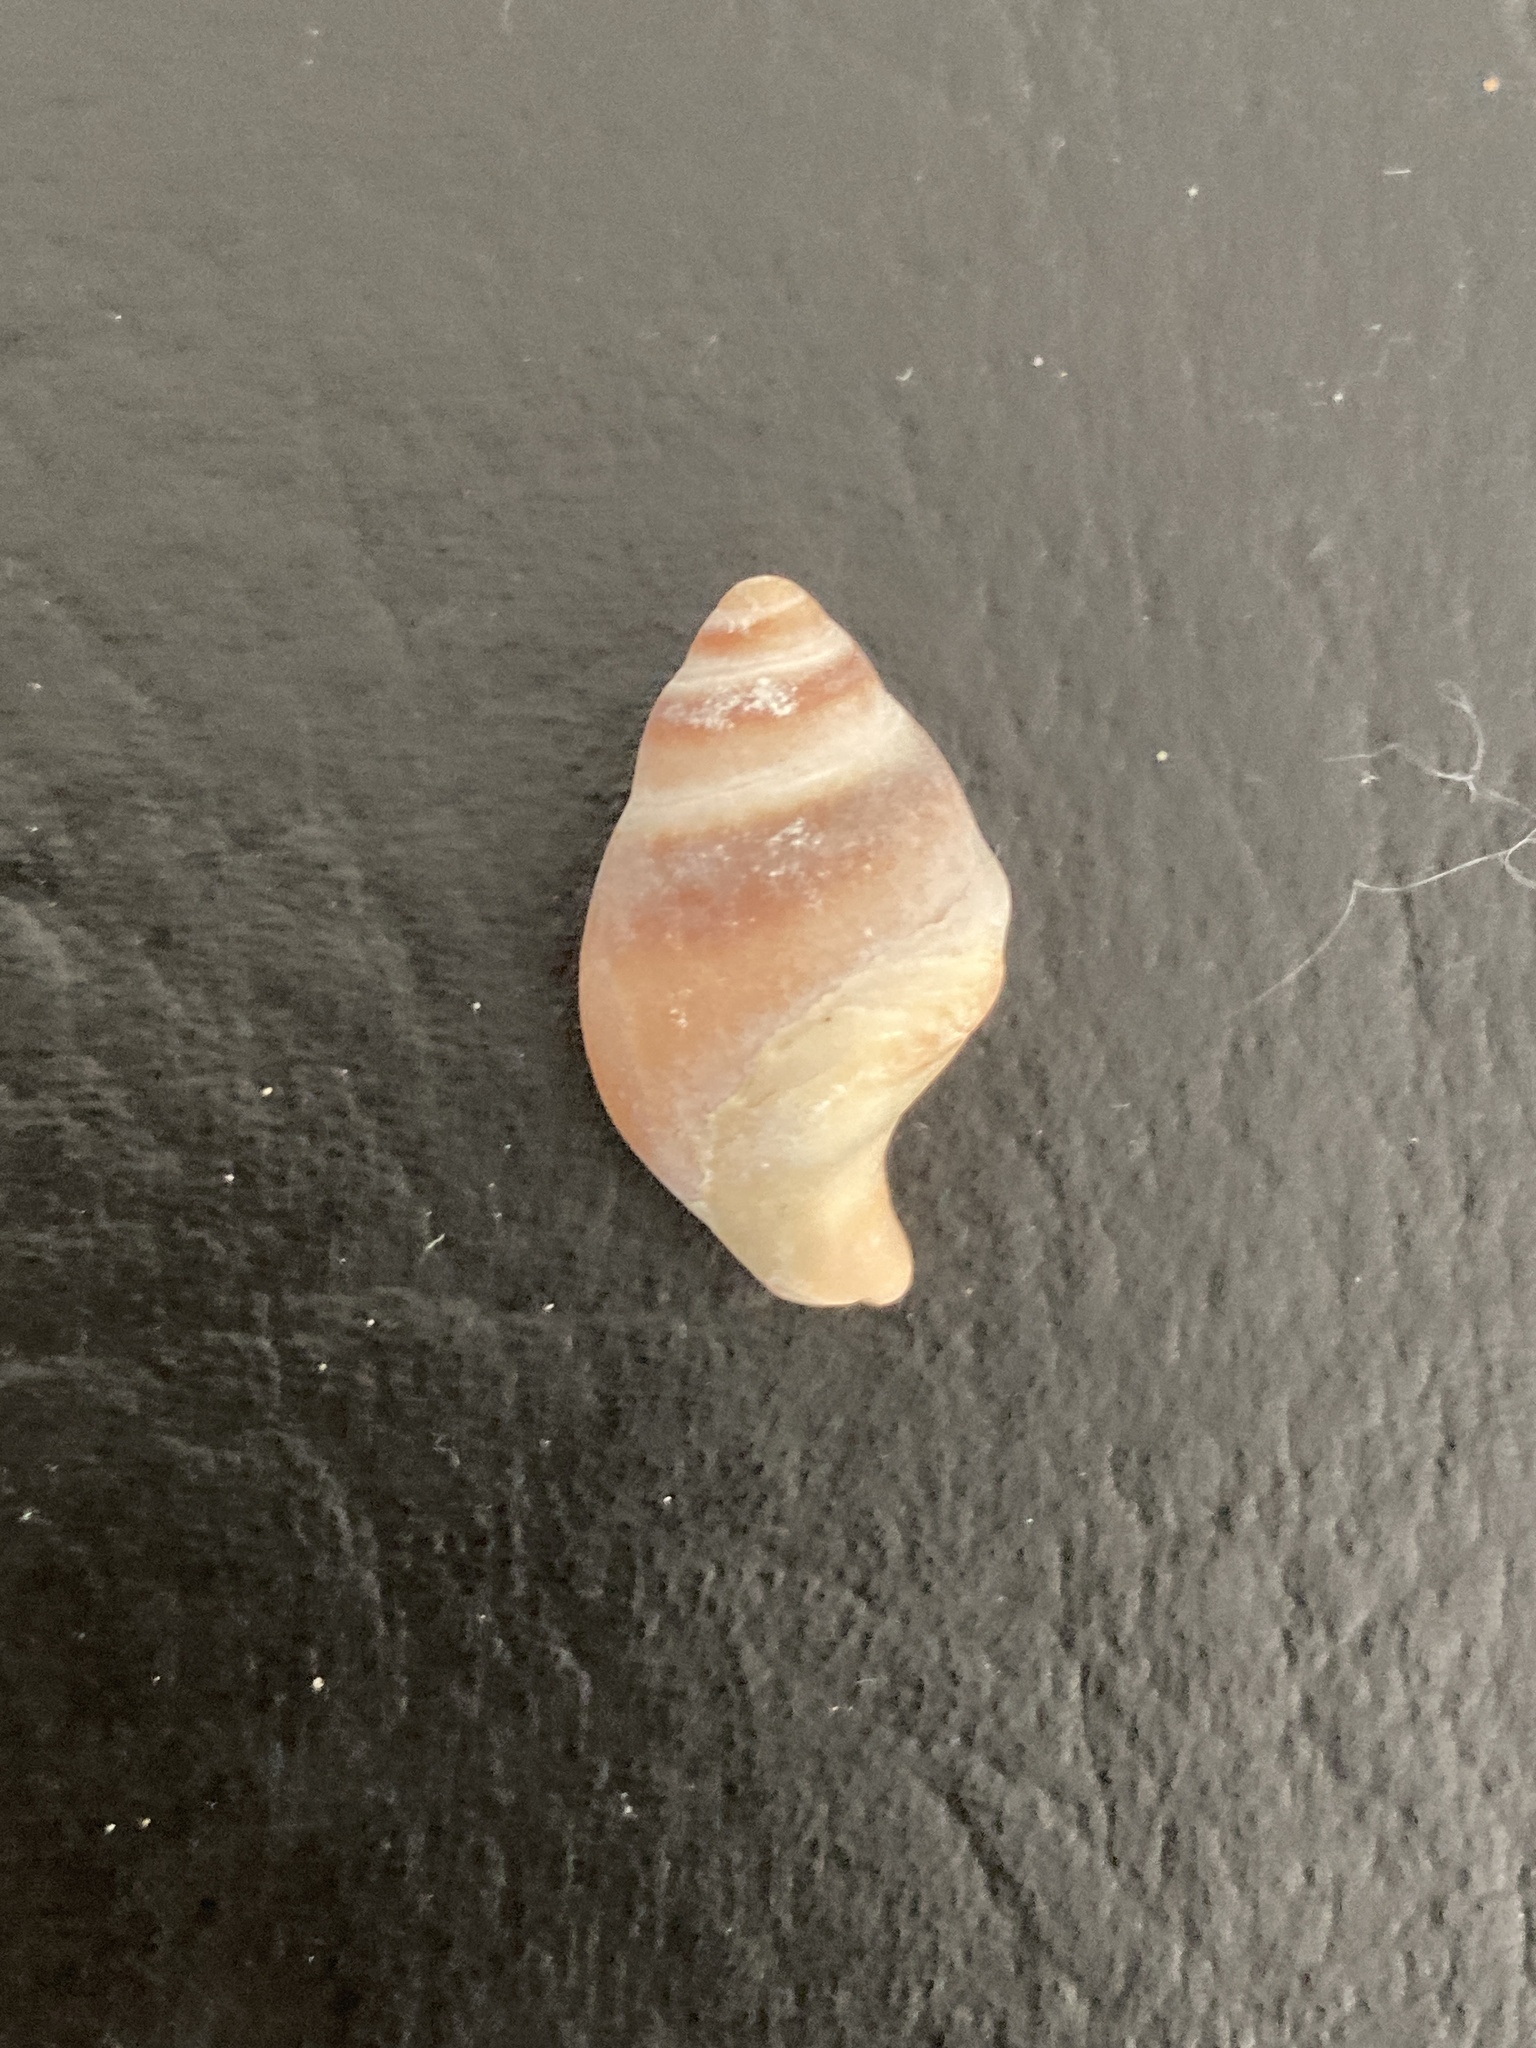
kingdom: Animalia
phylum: Mollusca
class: Gastropoda
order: Neogastropoda
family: Buccinanopsidae
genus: Buccinastrum
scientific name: Buccinastrum deforme
